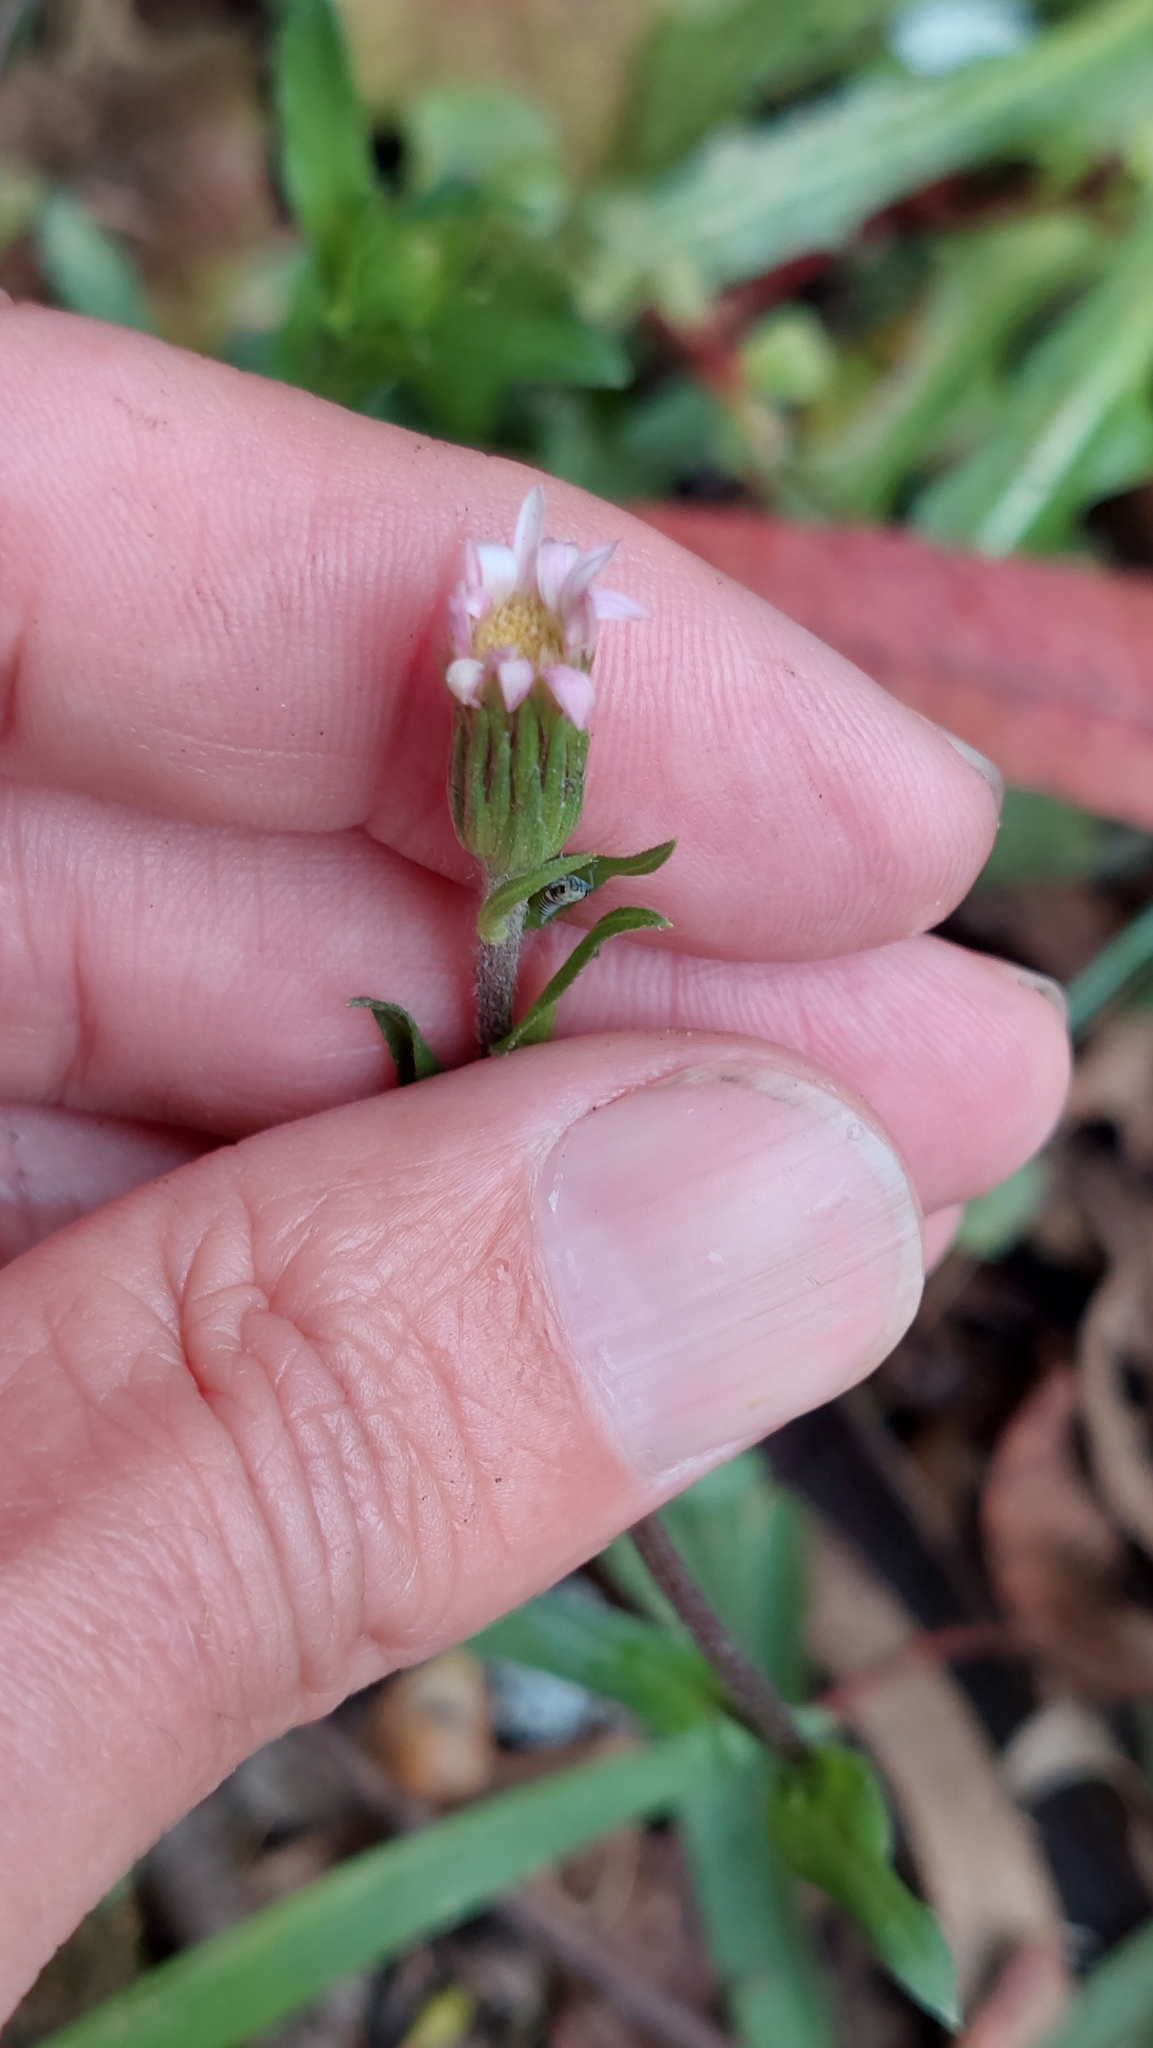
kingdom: Plantae
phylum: Tracheophyta
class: Magnoliopsida
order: Asterales
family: Asteraceae
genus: Noticastrum
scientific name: Noticastrum marginatum
